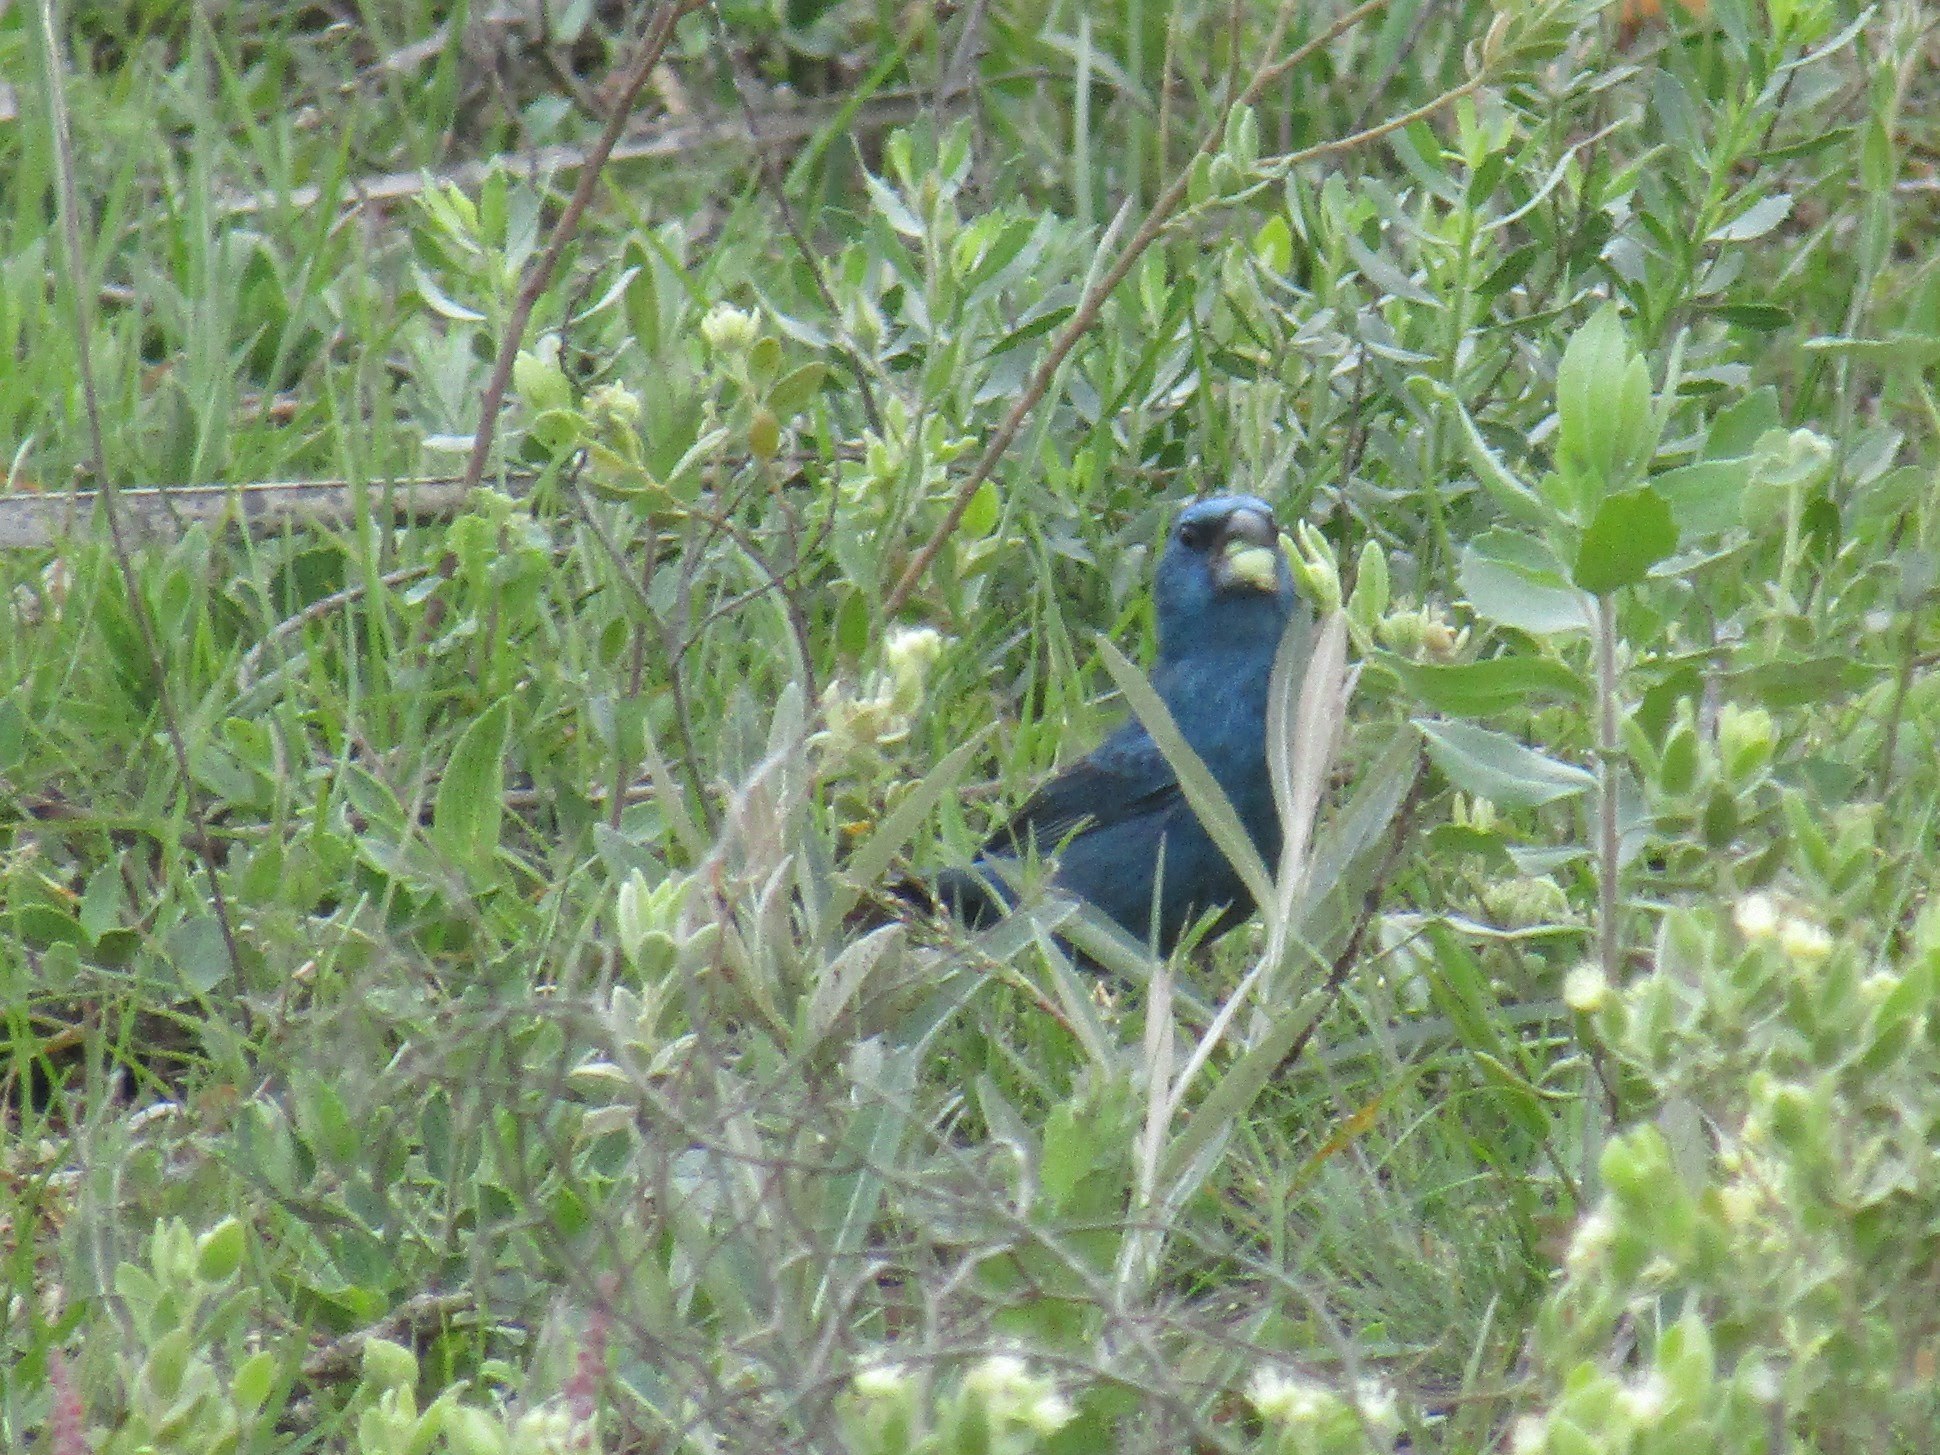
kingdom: Animalia
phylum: Chordata
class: Aves
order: Passeriformes
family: Cardinalidae
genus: Cyanoloxia
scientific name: Cyanoloxia glaucocaerulea
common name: Glaucous-blue grosbeak
